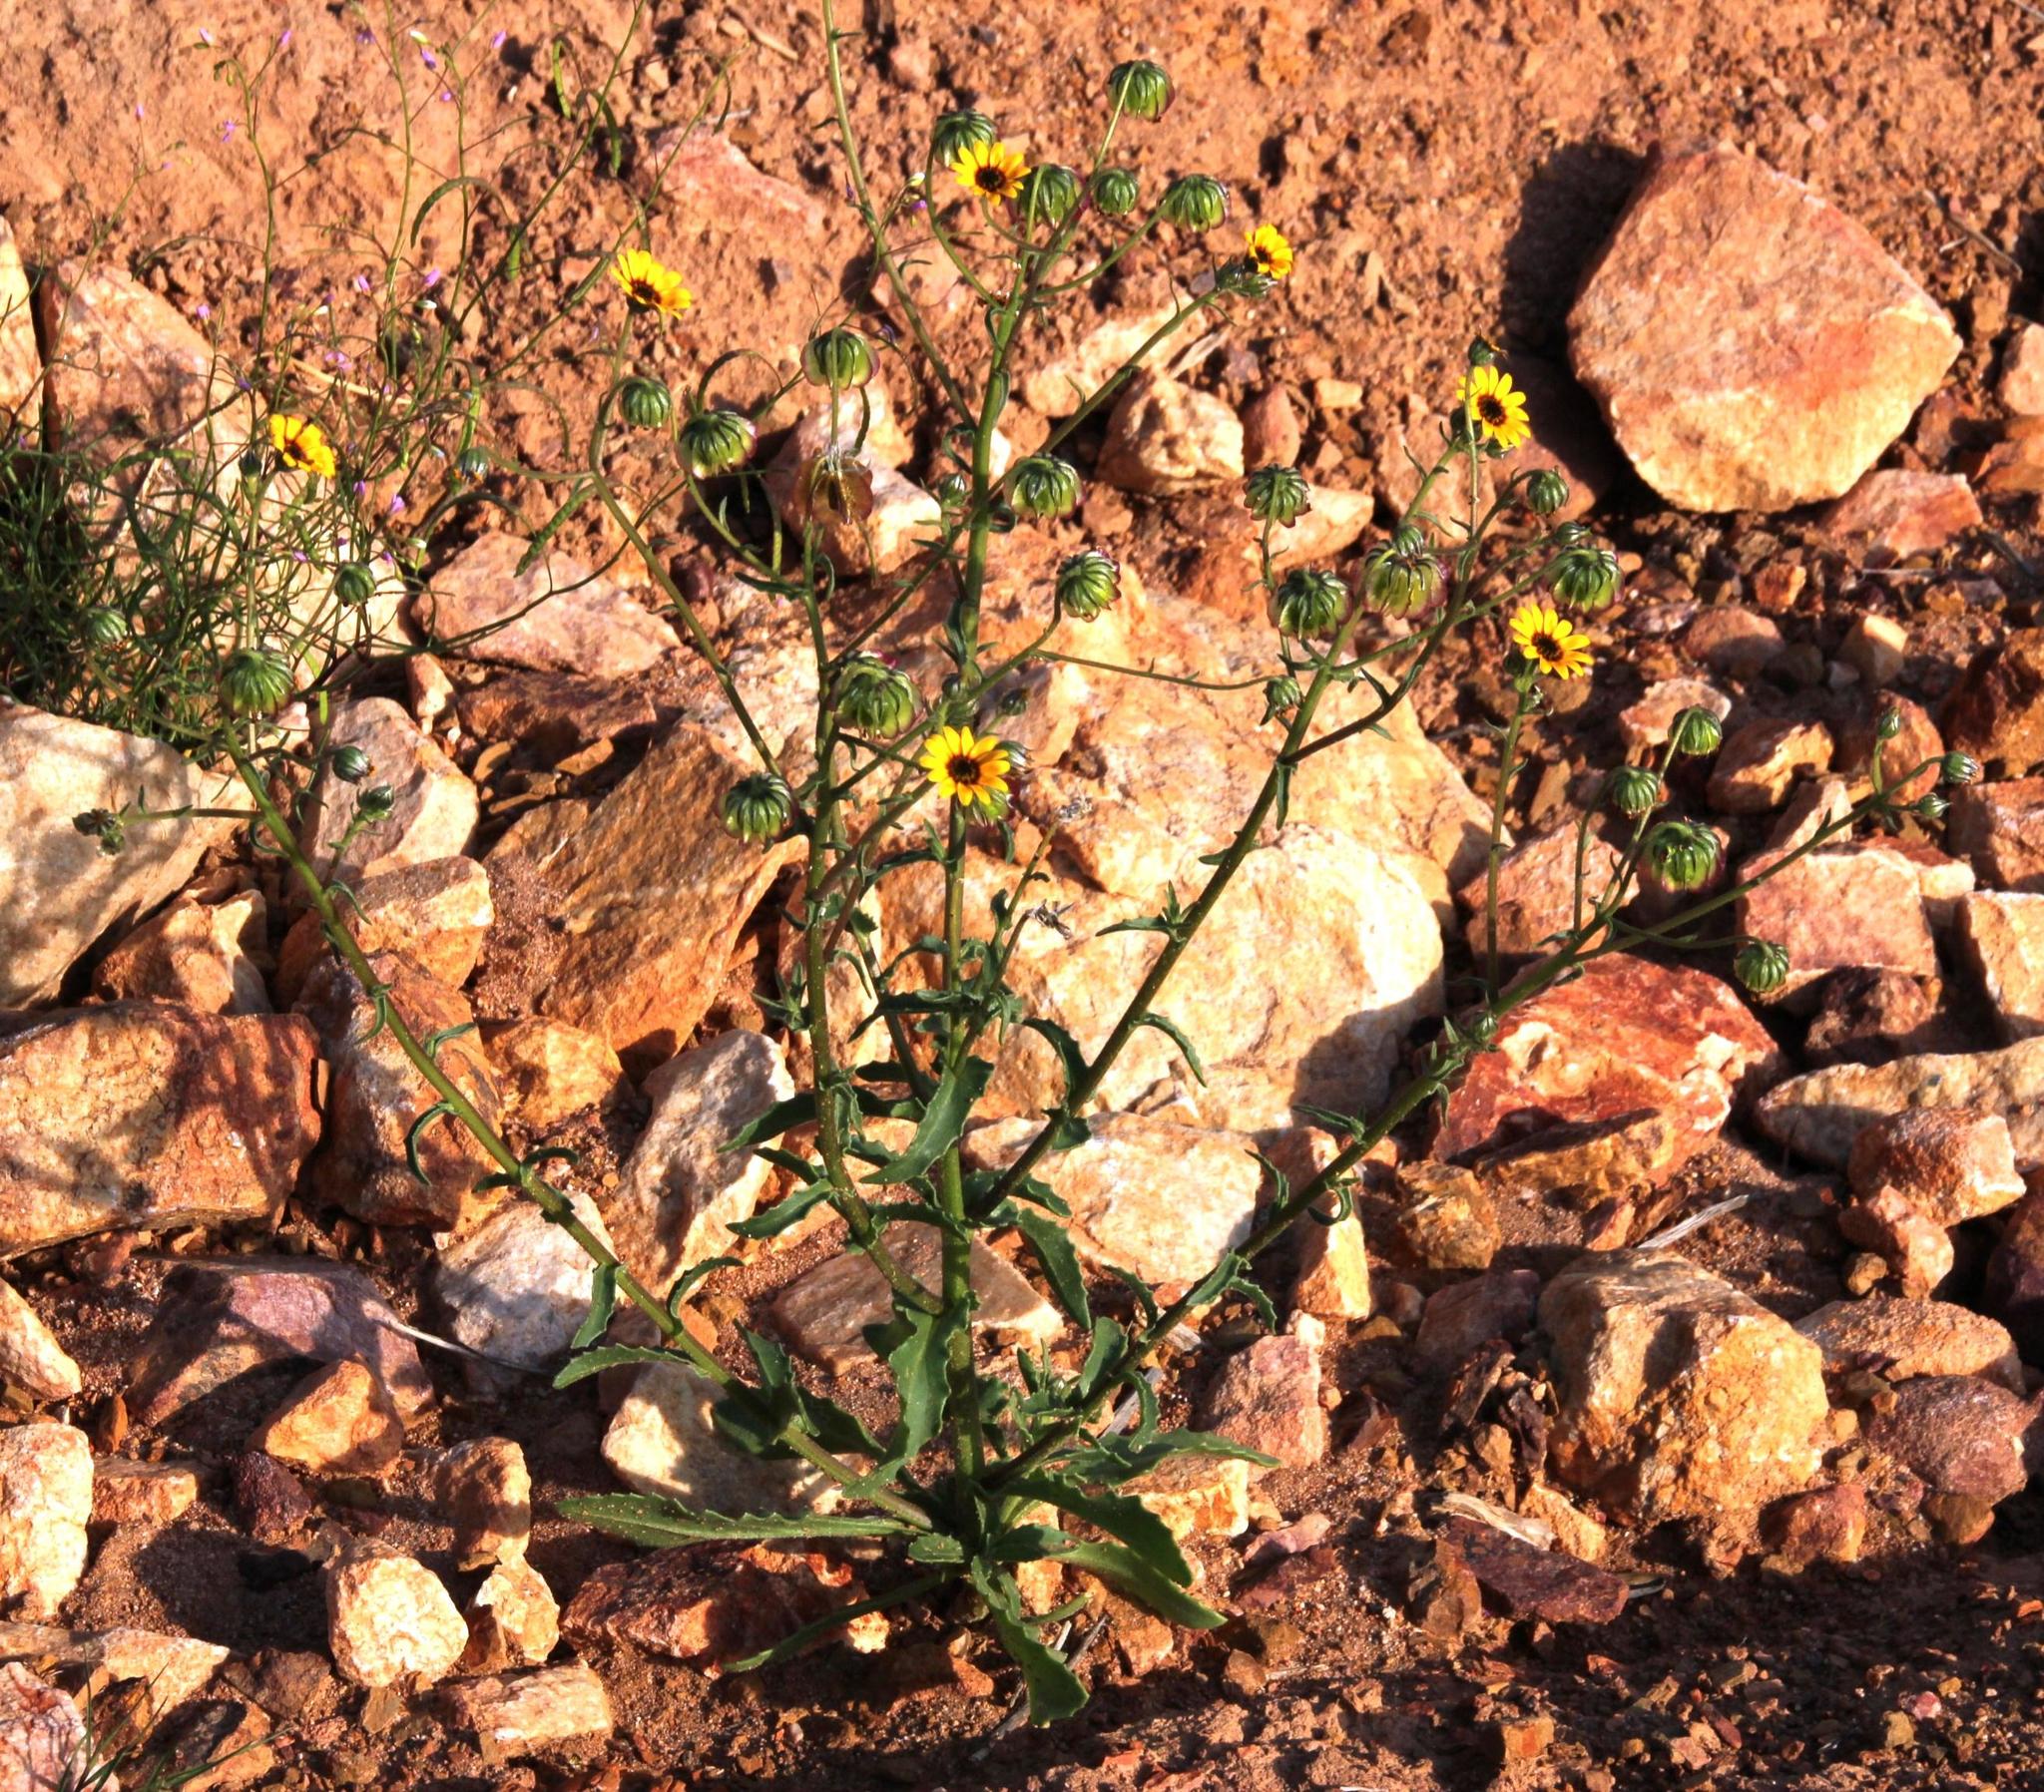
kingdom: Plantae
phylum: Tracheophyta
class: Magnoliopsida
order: Asterales
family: Asteraceae
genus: Osteospermum
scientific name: Osteospermum monstrosum
